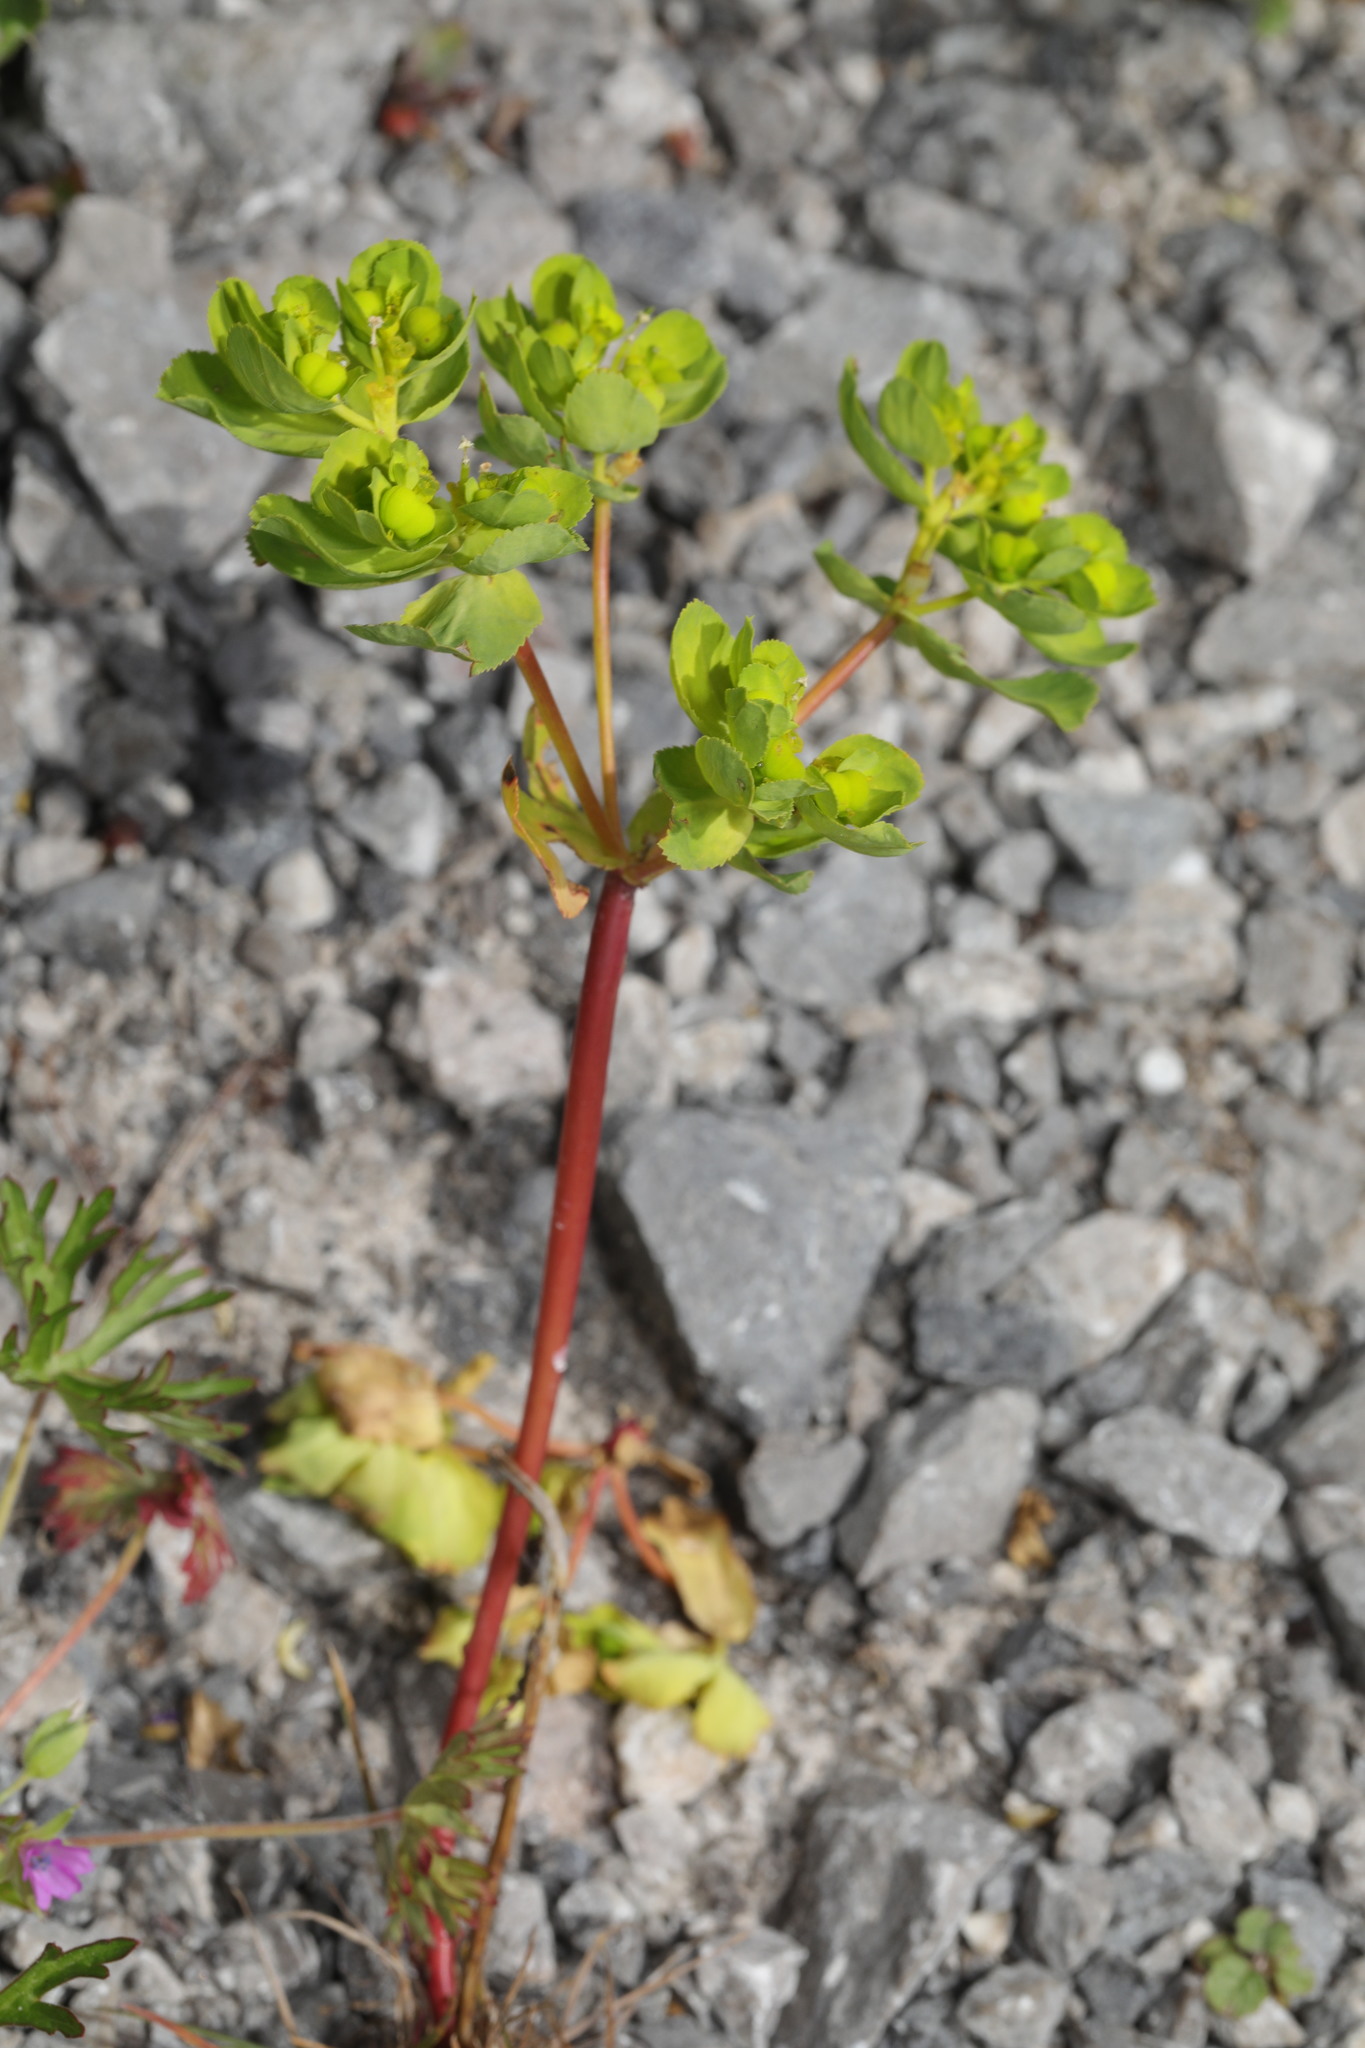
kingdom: Plantae
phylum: Tracheophyta
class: Magnoliopsida
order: Malpighiales
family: Euphorbiaceae
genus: Euphorbia
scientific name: Euphorbia helioscopia
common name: Sun spurge
